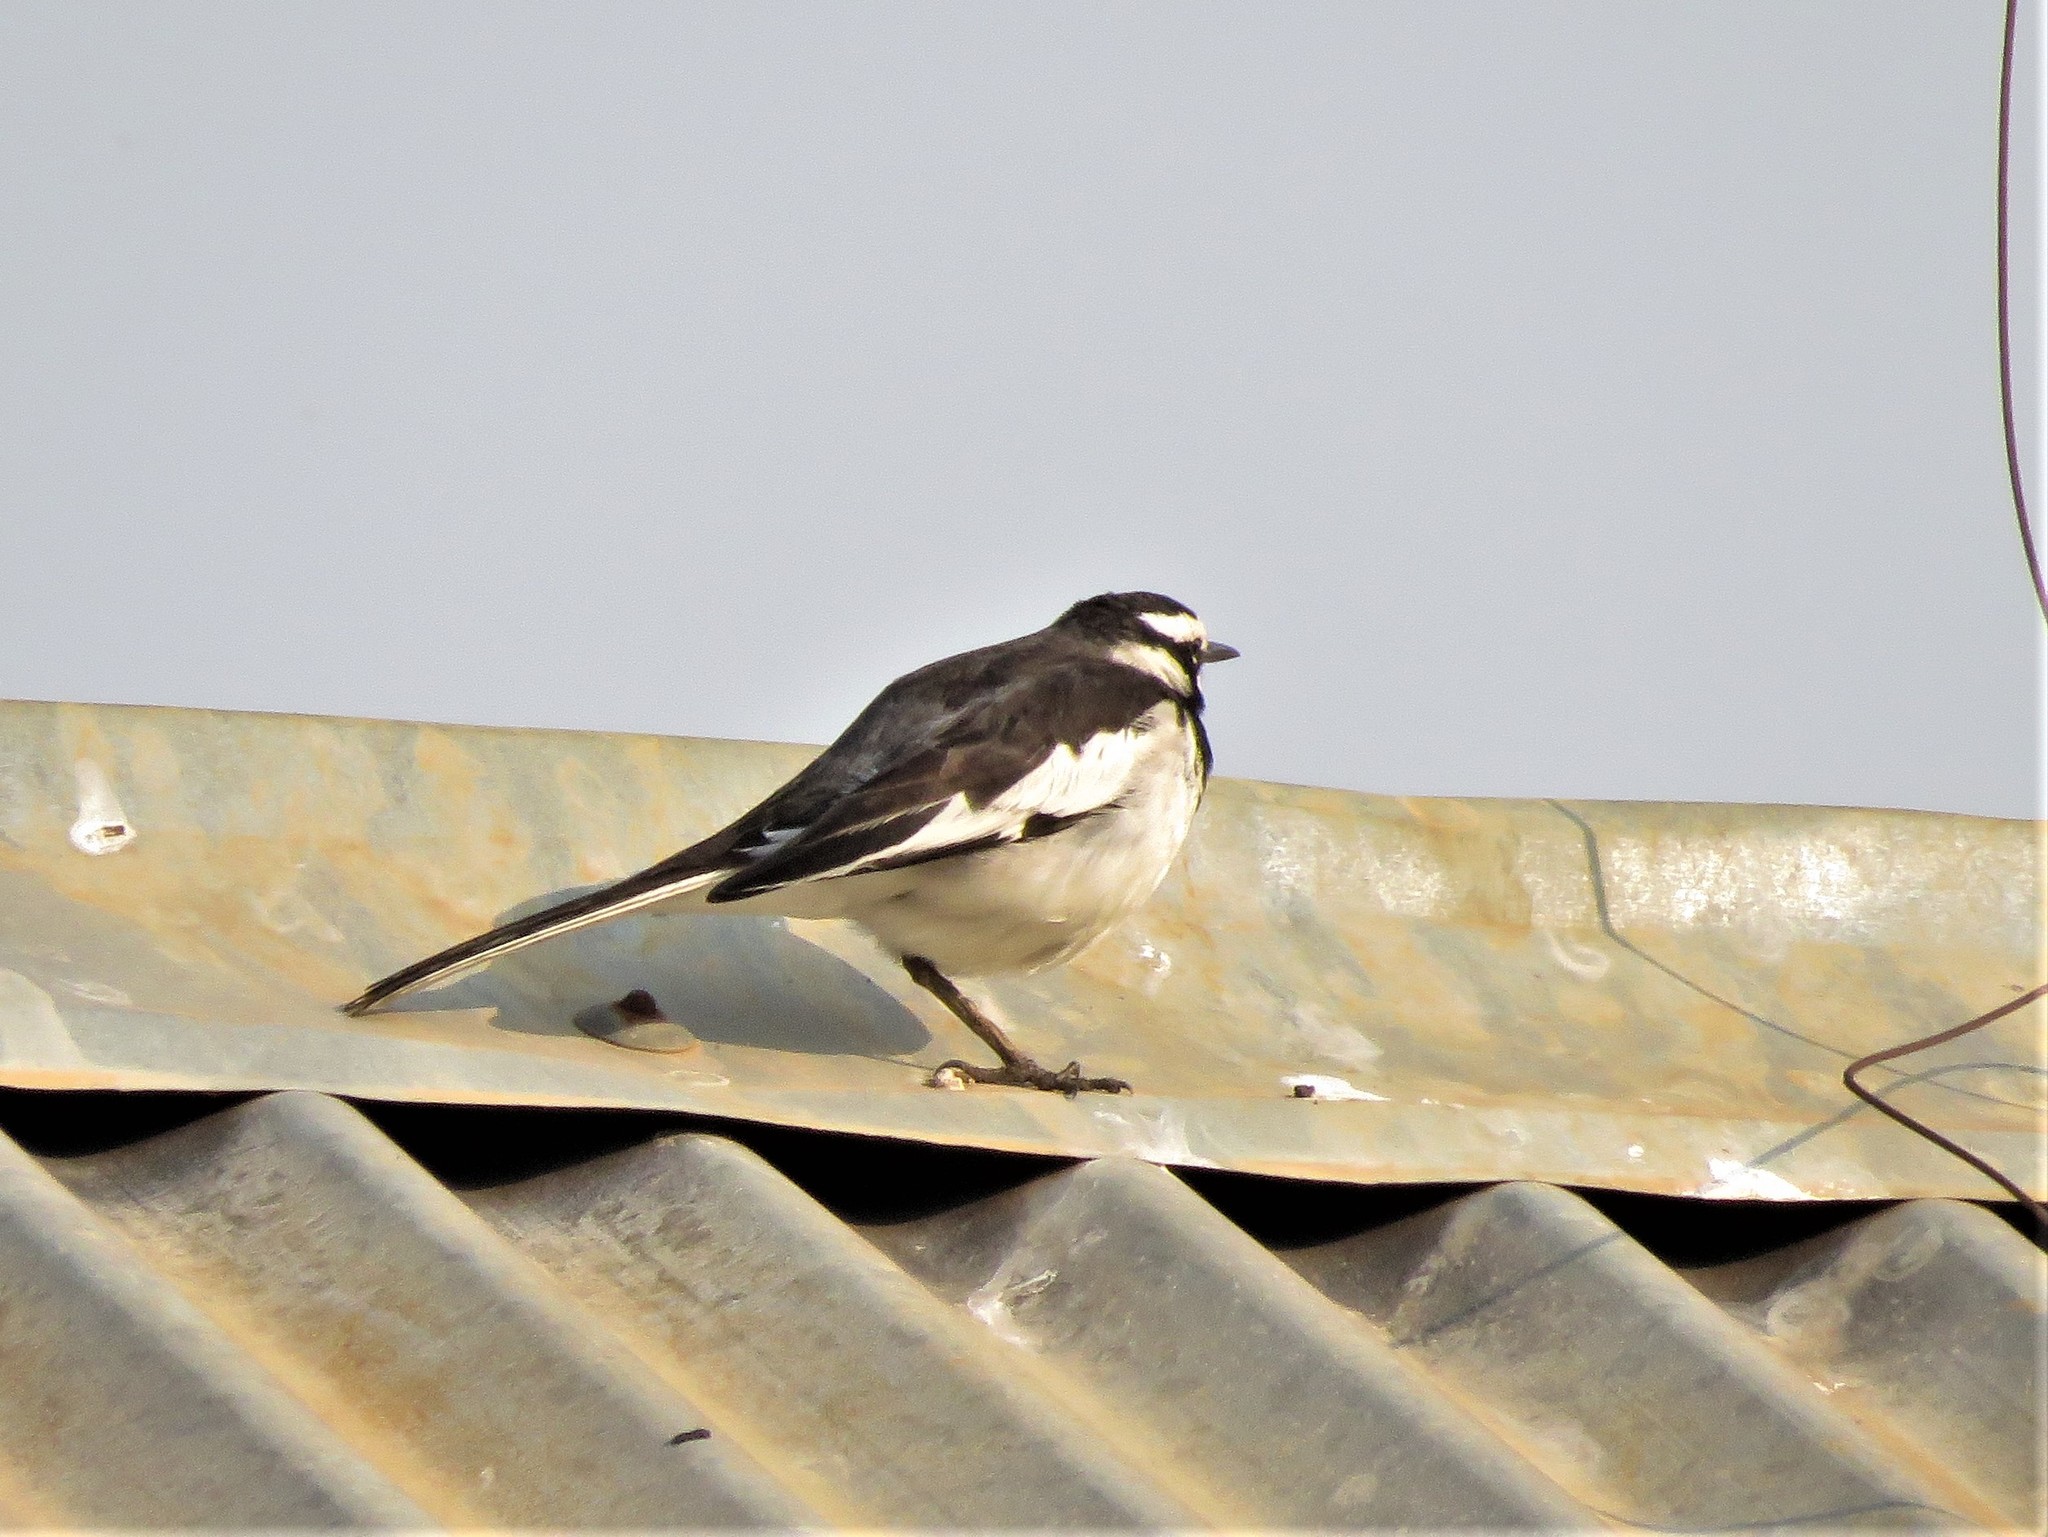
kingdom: Animalia
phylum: Chordata
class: Aves
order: Passeriformes
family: Motacillidae
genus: Motacilla
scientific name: Motacilla aguimp
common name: African pied wagtail
